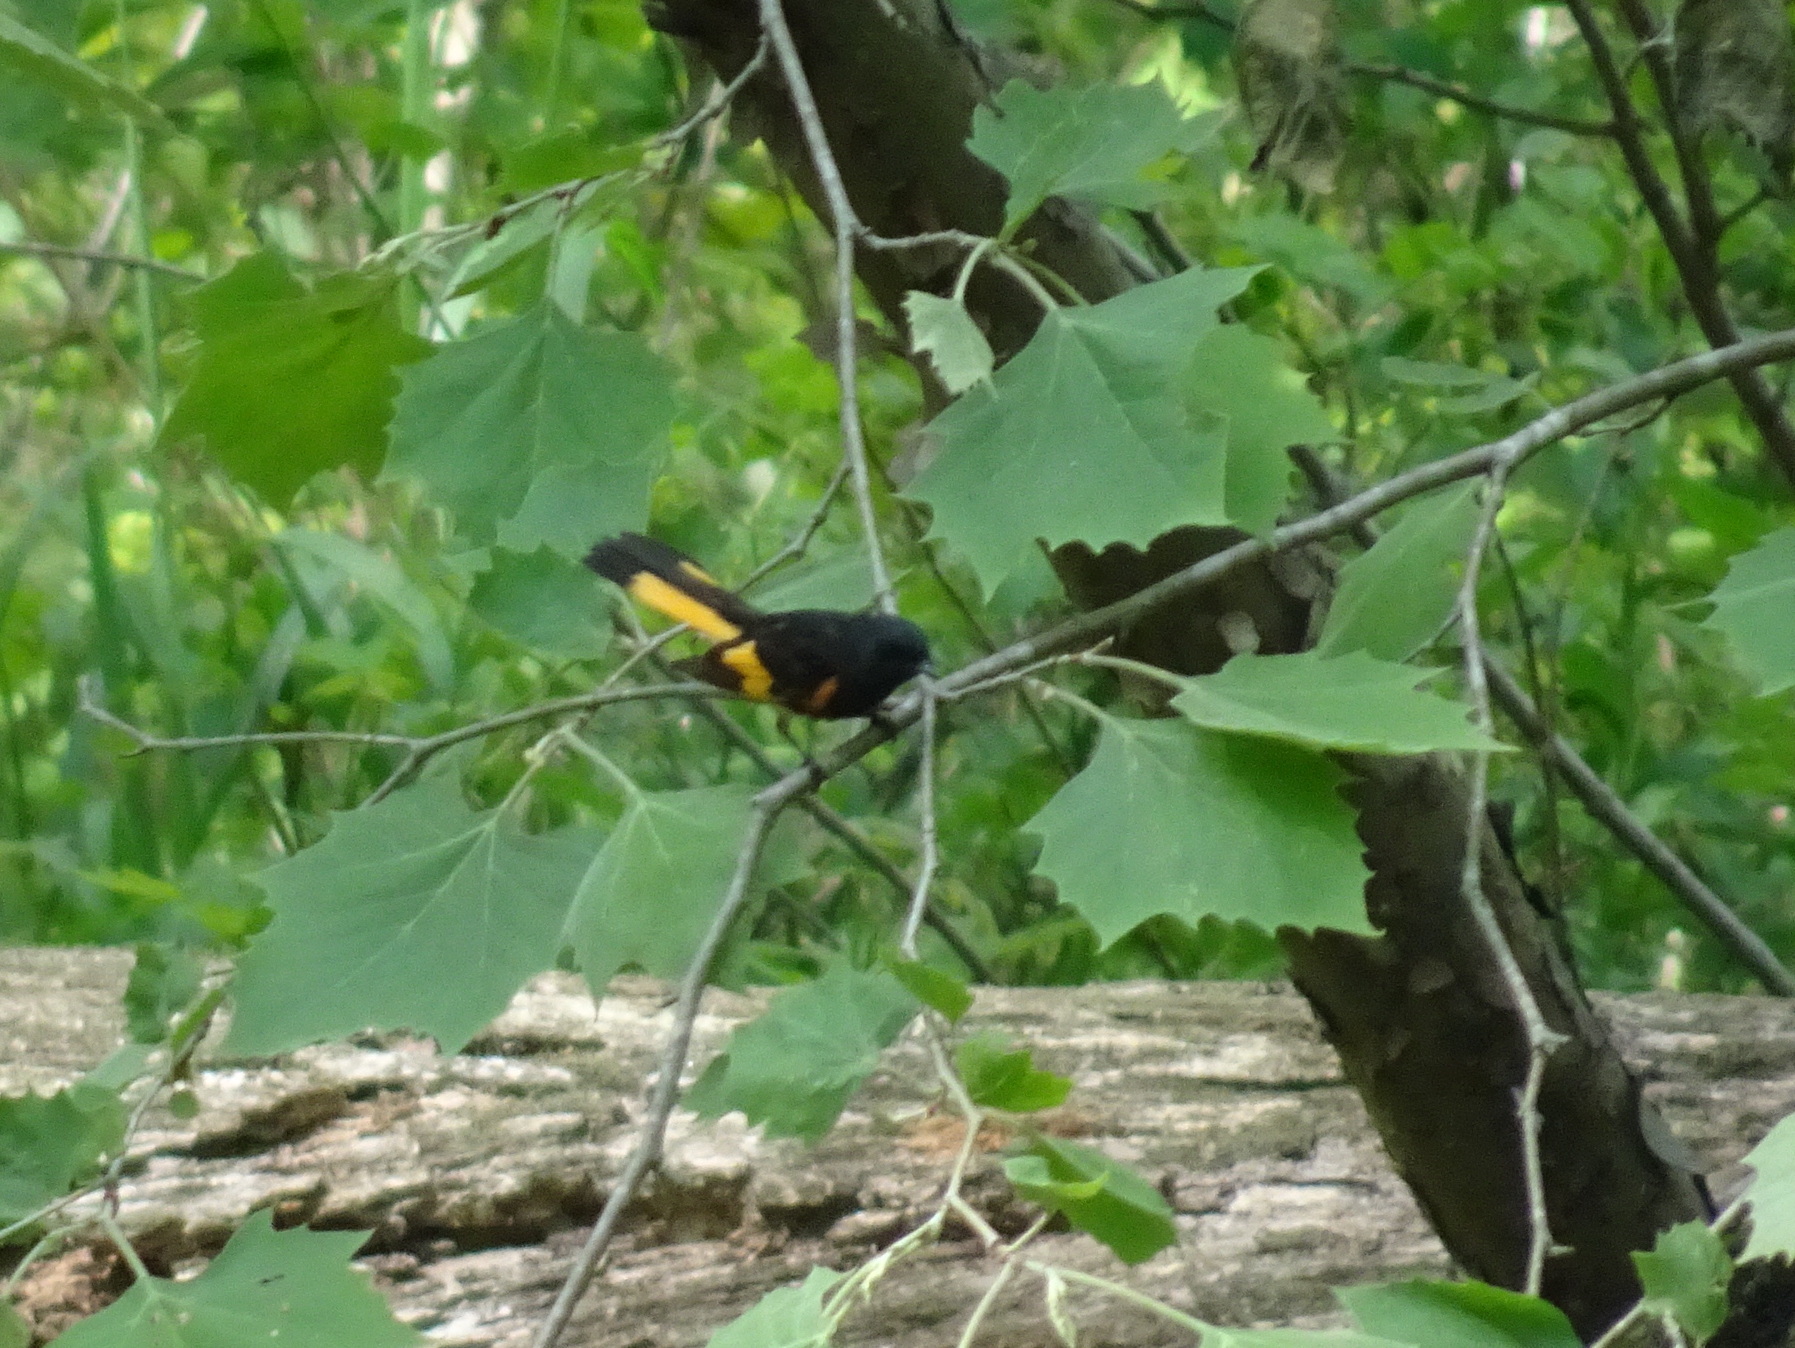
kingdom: Animalia
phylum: Chordata
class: Aves
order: Passeriformes
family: Parulidae
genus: Setophaga
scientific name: Setophaga ruticilla
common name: American redstart
